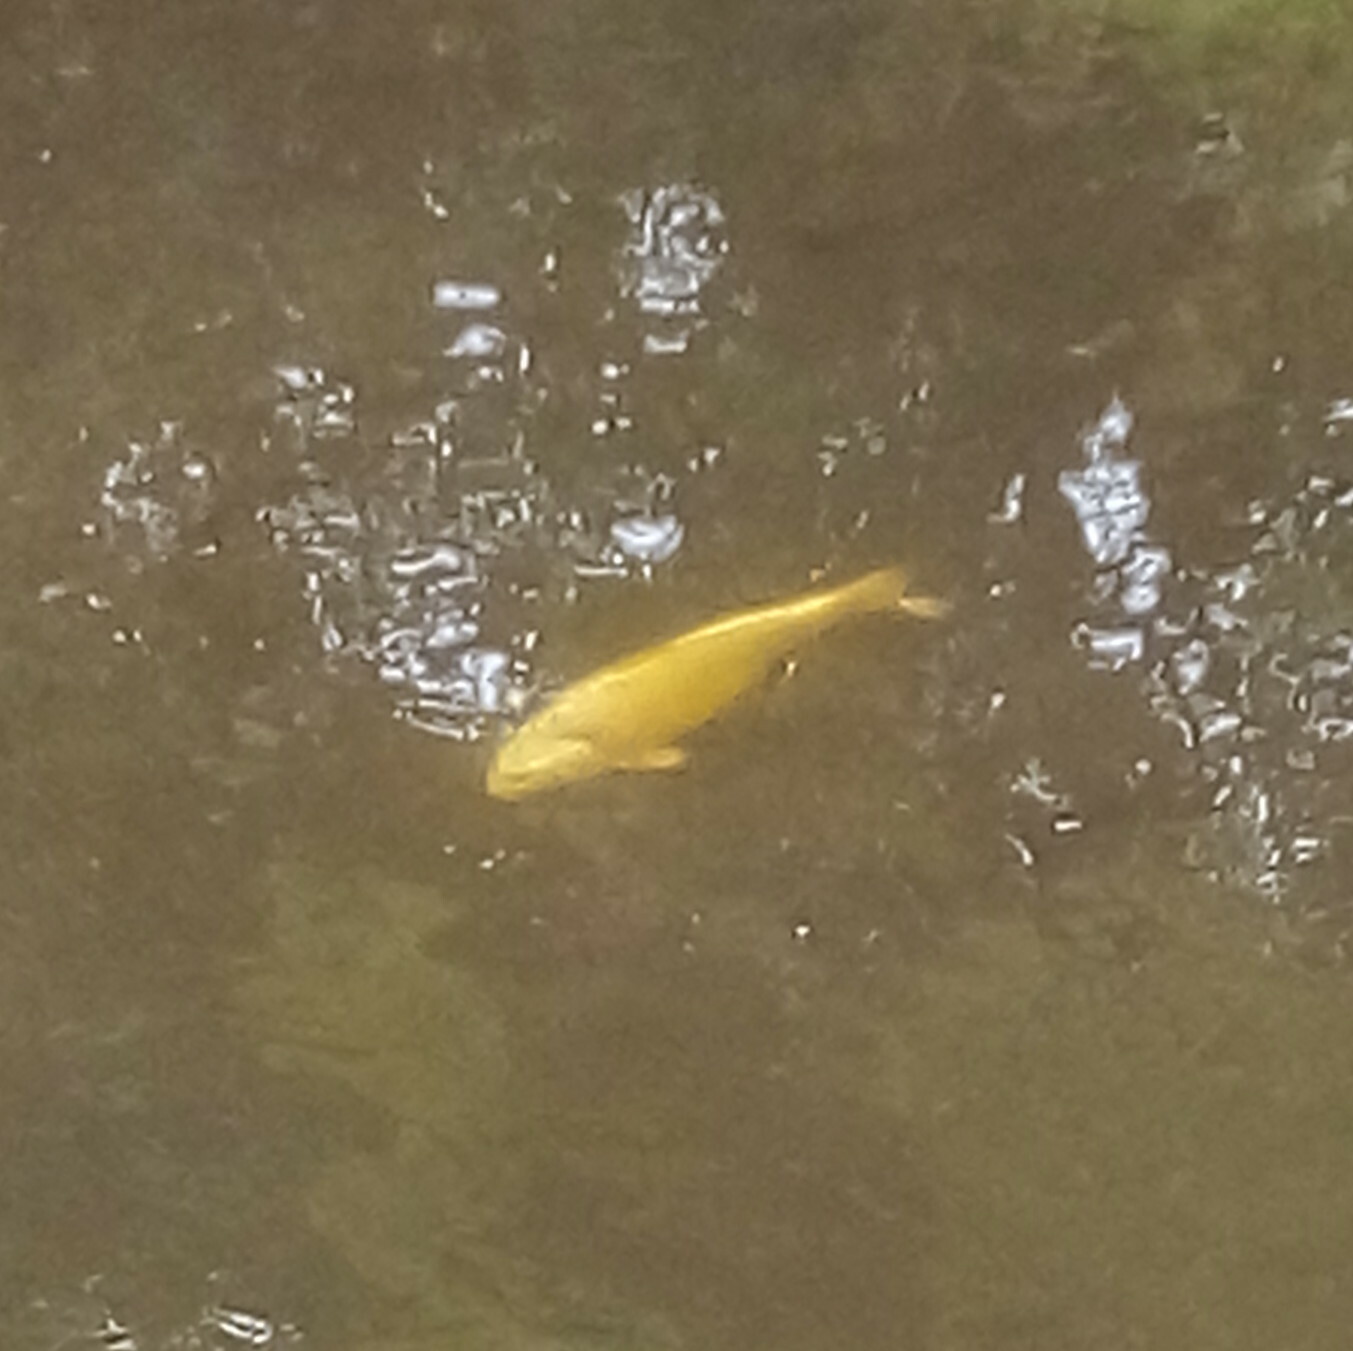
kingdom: Animalia
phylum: Chordata
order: Cypriniformes
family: Cyprinidae
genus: Cyprinus
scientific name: Cyprinus rubrofuscus
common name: Koi
